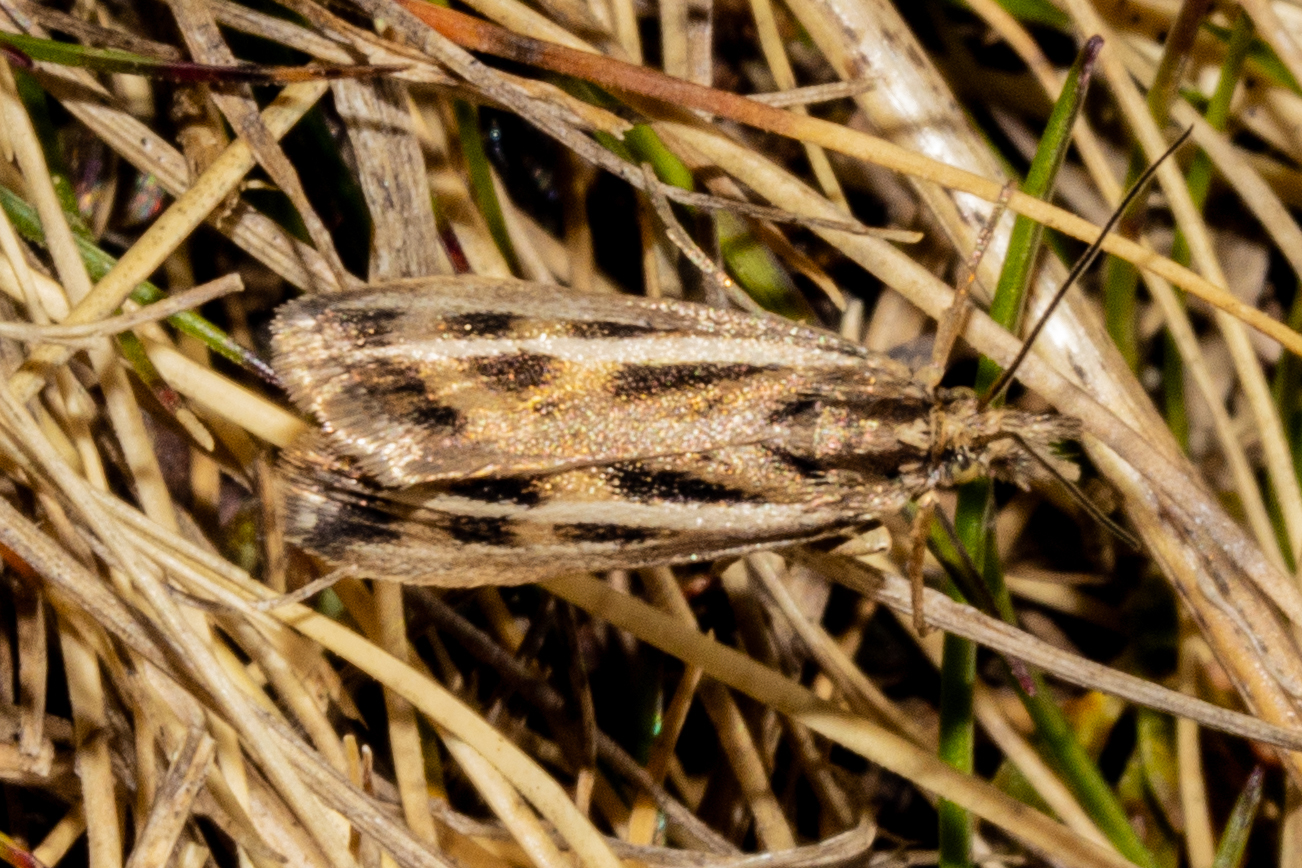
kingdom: Animalia
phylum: Arthropoda
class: Insecta
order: Lepidoptera
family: Crambidae
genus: Orocrambus
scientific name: Orocrambus corruptus
